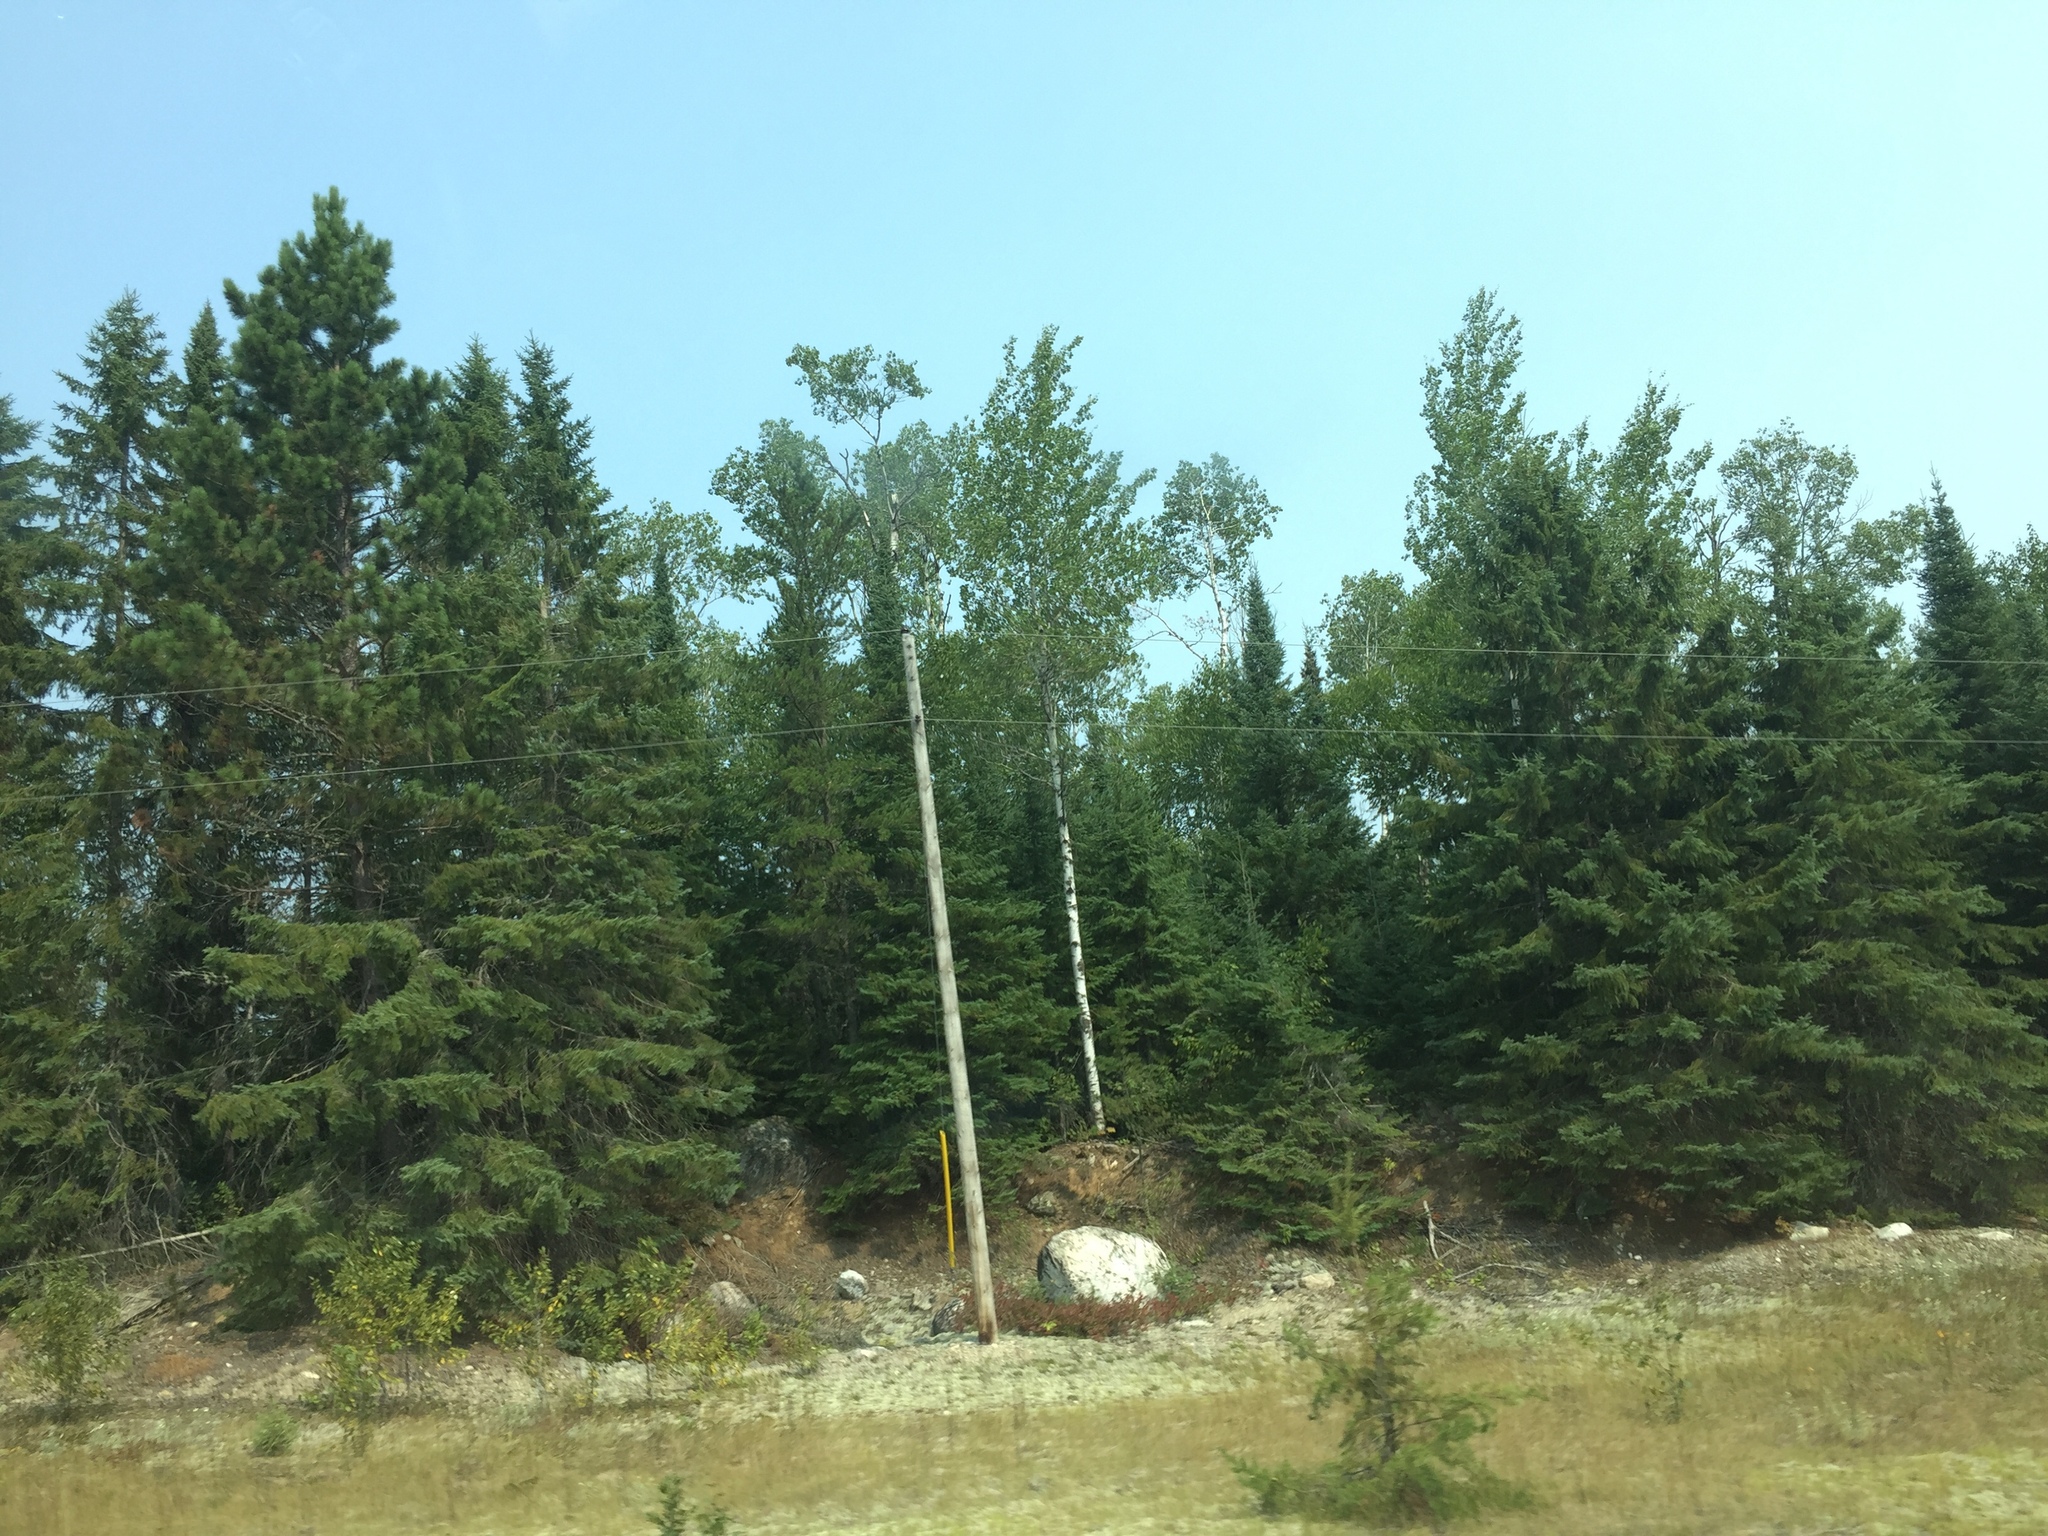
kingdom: Plantae
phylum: Tracheophyta
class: Pinopsida
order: Pinales
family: Pinaceae
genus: Pinus
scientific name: Pinus resinosa
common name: Norway pine
